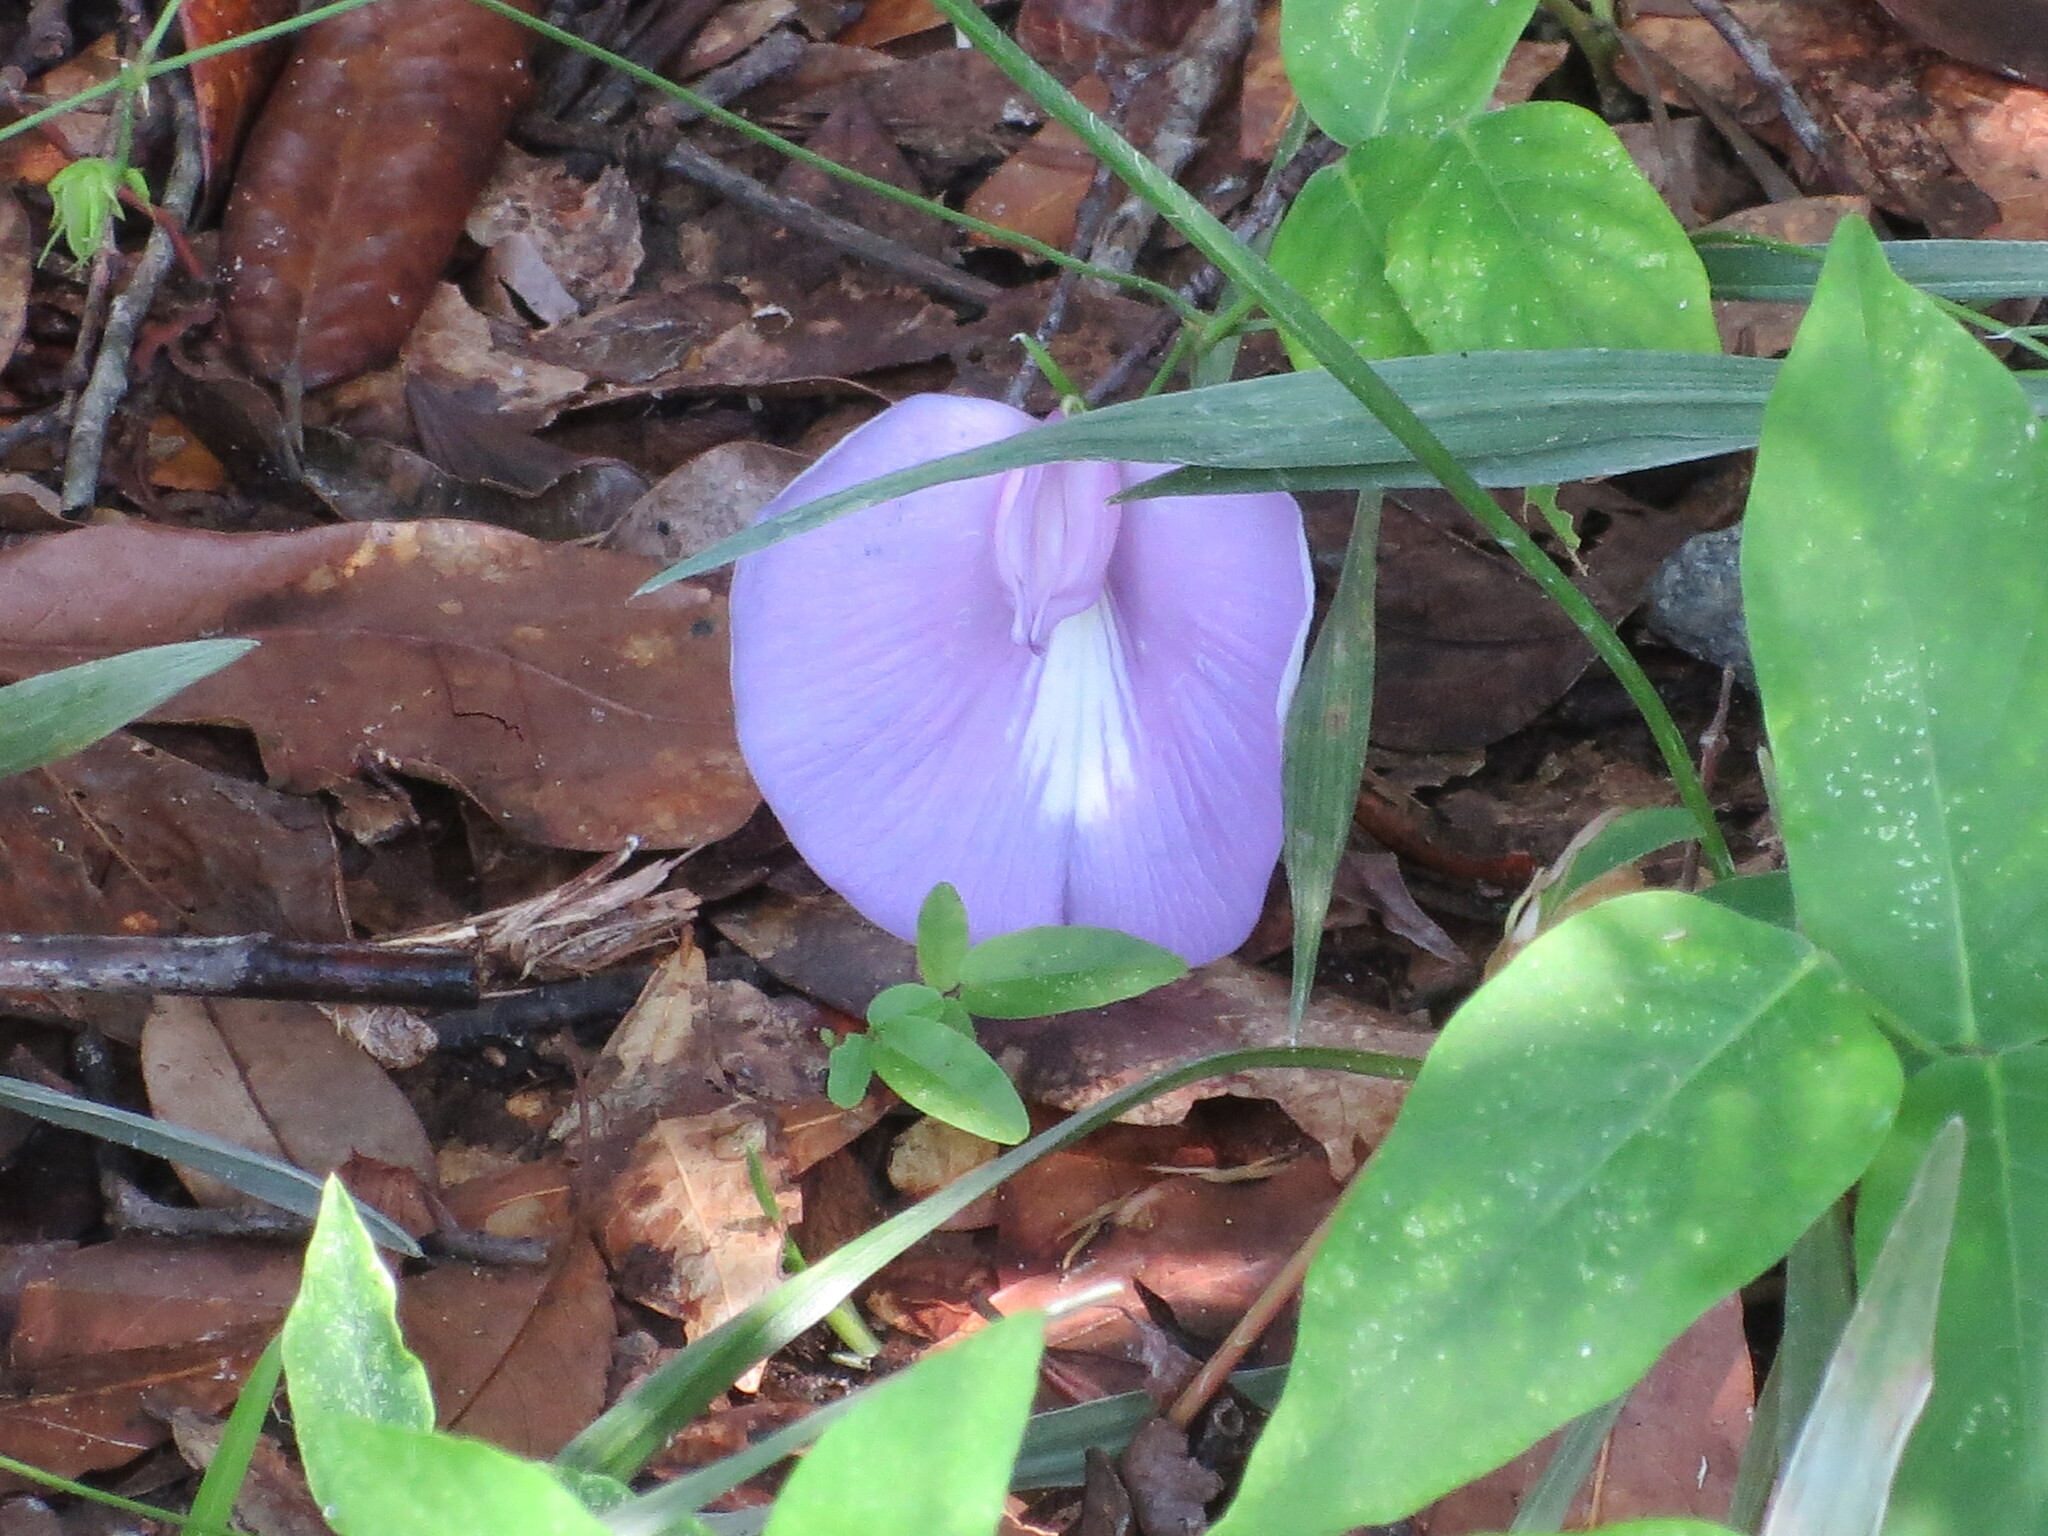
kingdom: Plantae
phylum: Tracheophyta
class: Magnoliopsida
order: Fabales
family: Fabaceae
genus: Centrosema
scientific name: Centrosema virginianum
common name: Butterfly-pea
